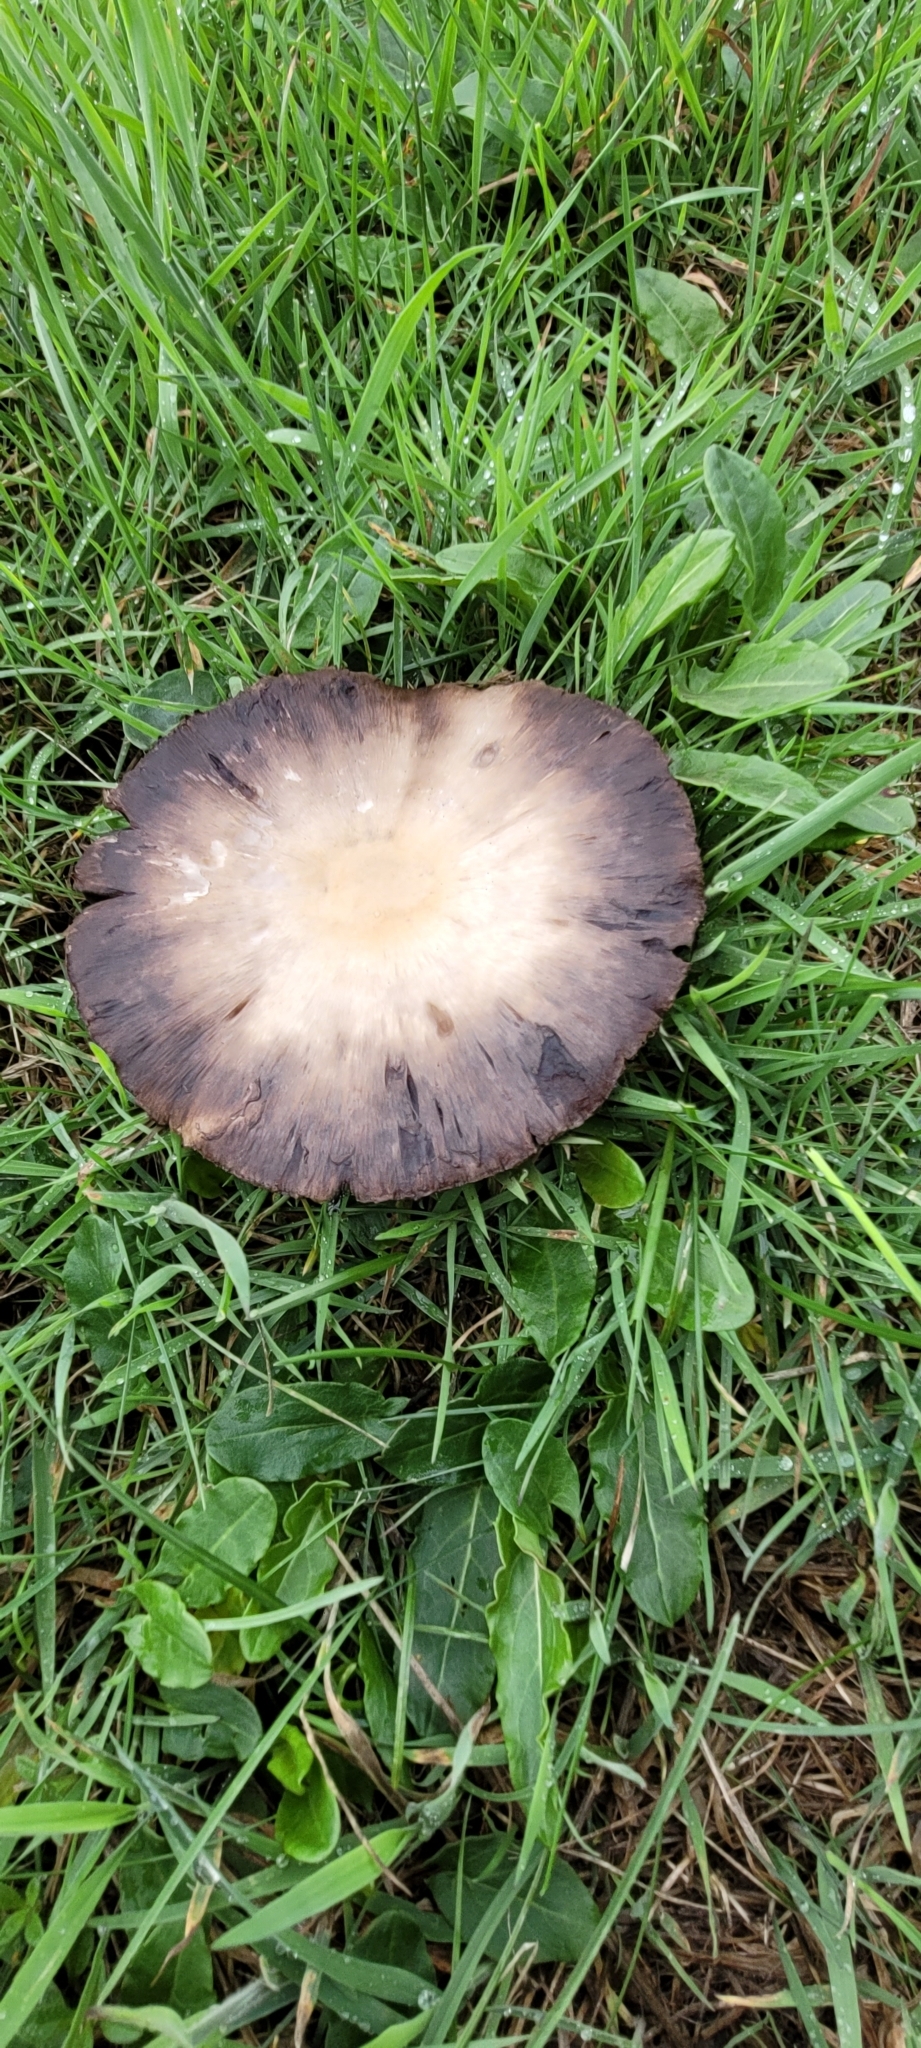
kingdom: Fungi
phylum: Basidiomycota
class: Agaricomycetes
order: Agaricales
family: Agaricaceae
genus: Agaricus
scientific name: Agaricus arvensis
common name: Horse mushroom
